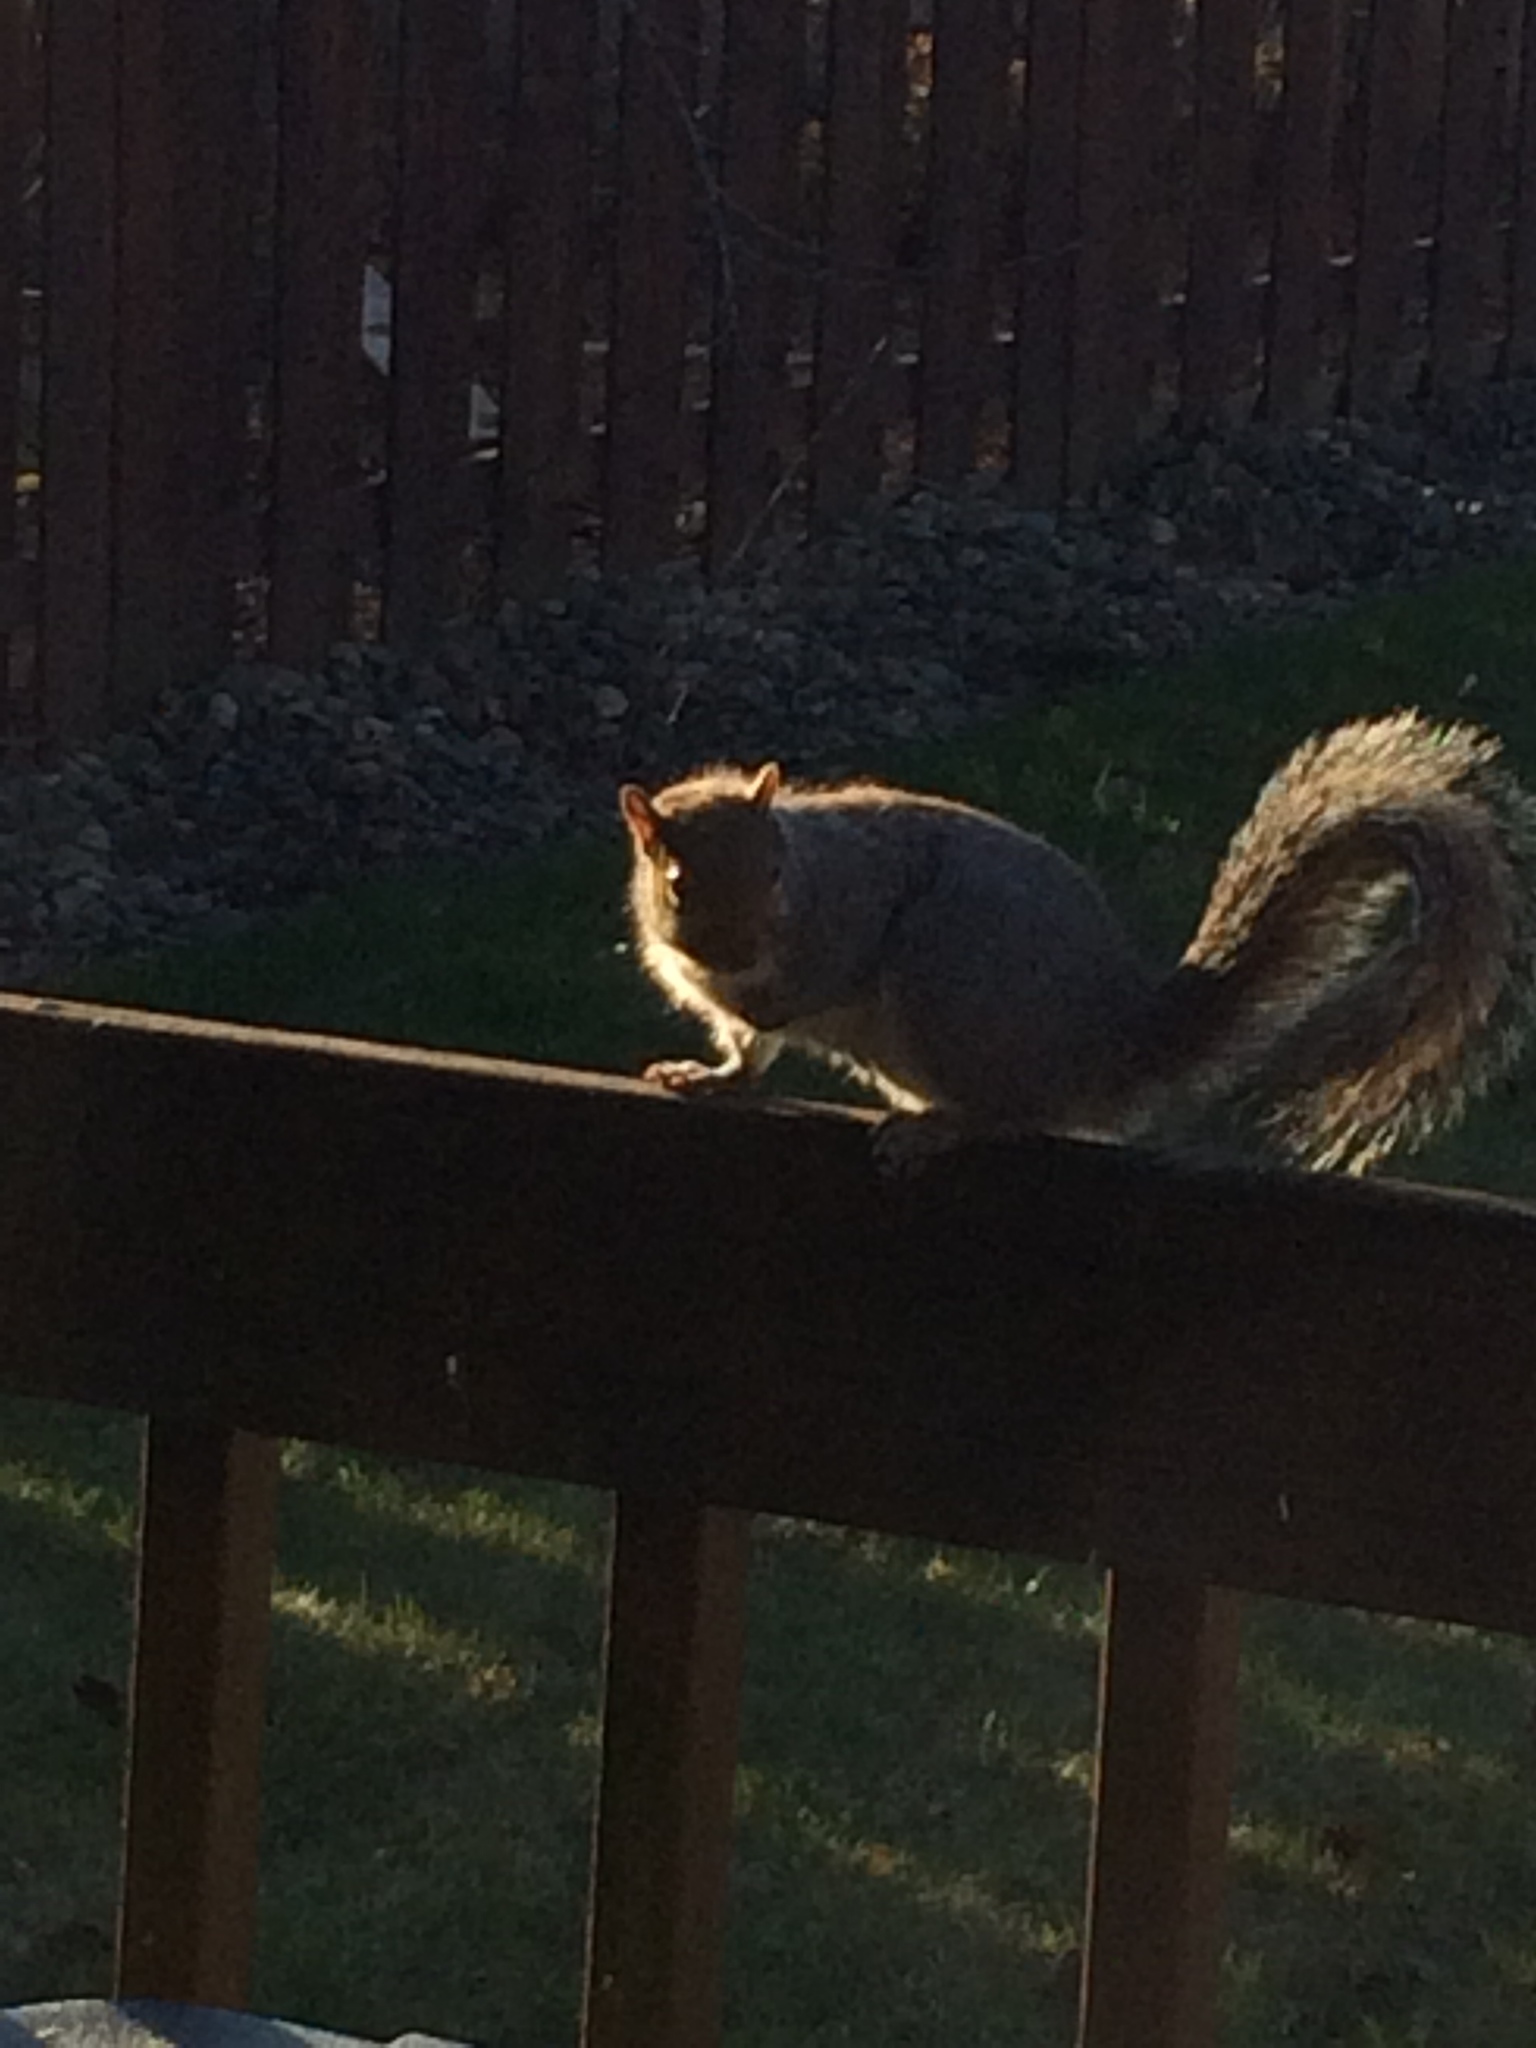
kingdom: Animalia
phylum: Chordata
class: Mammalia
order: Rodentia
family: Sciuridae
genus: Sciurus
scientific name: Sciurus carolinensis
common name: Eastern gray squirrel
